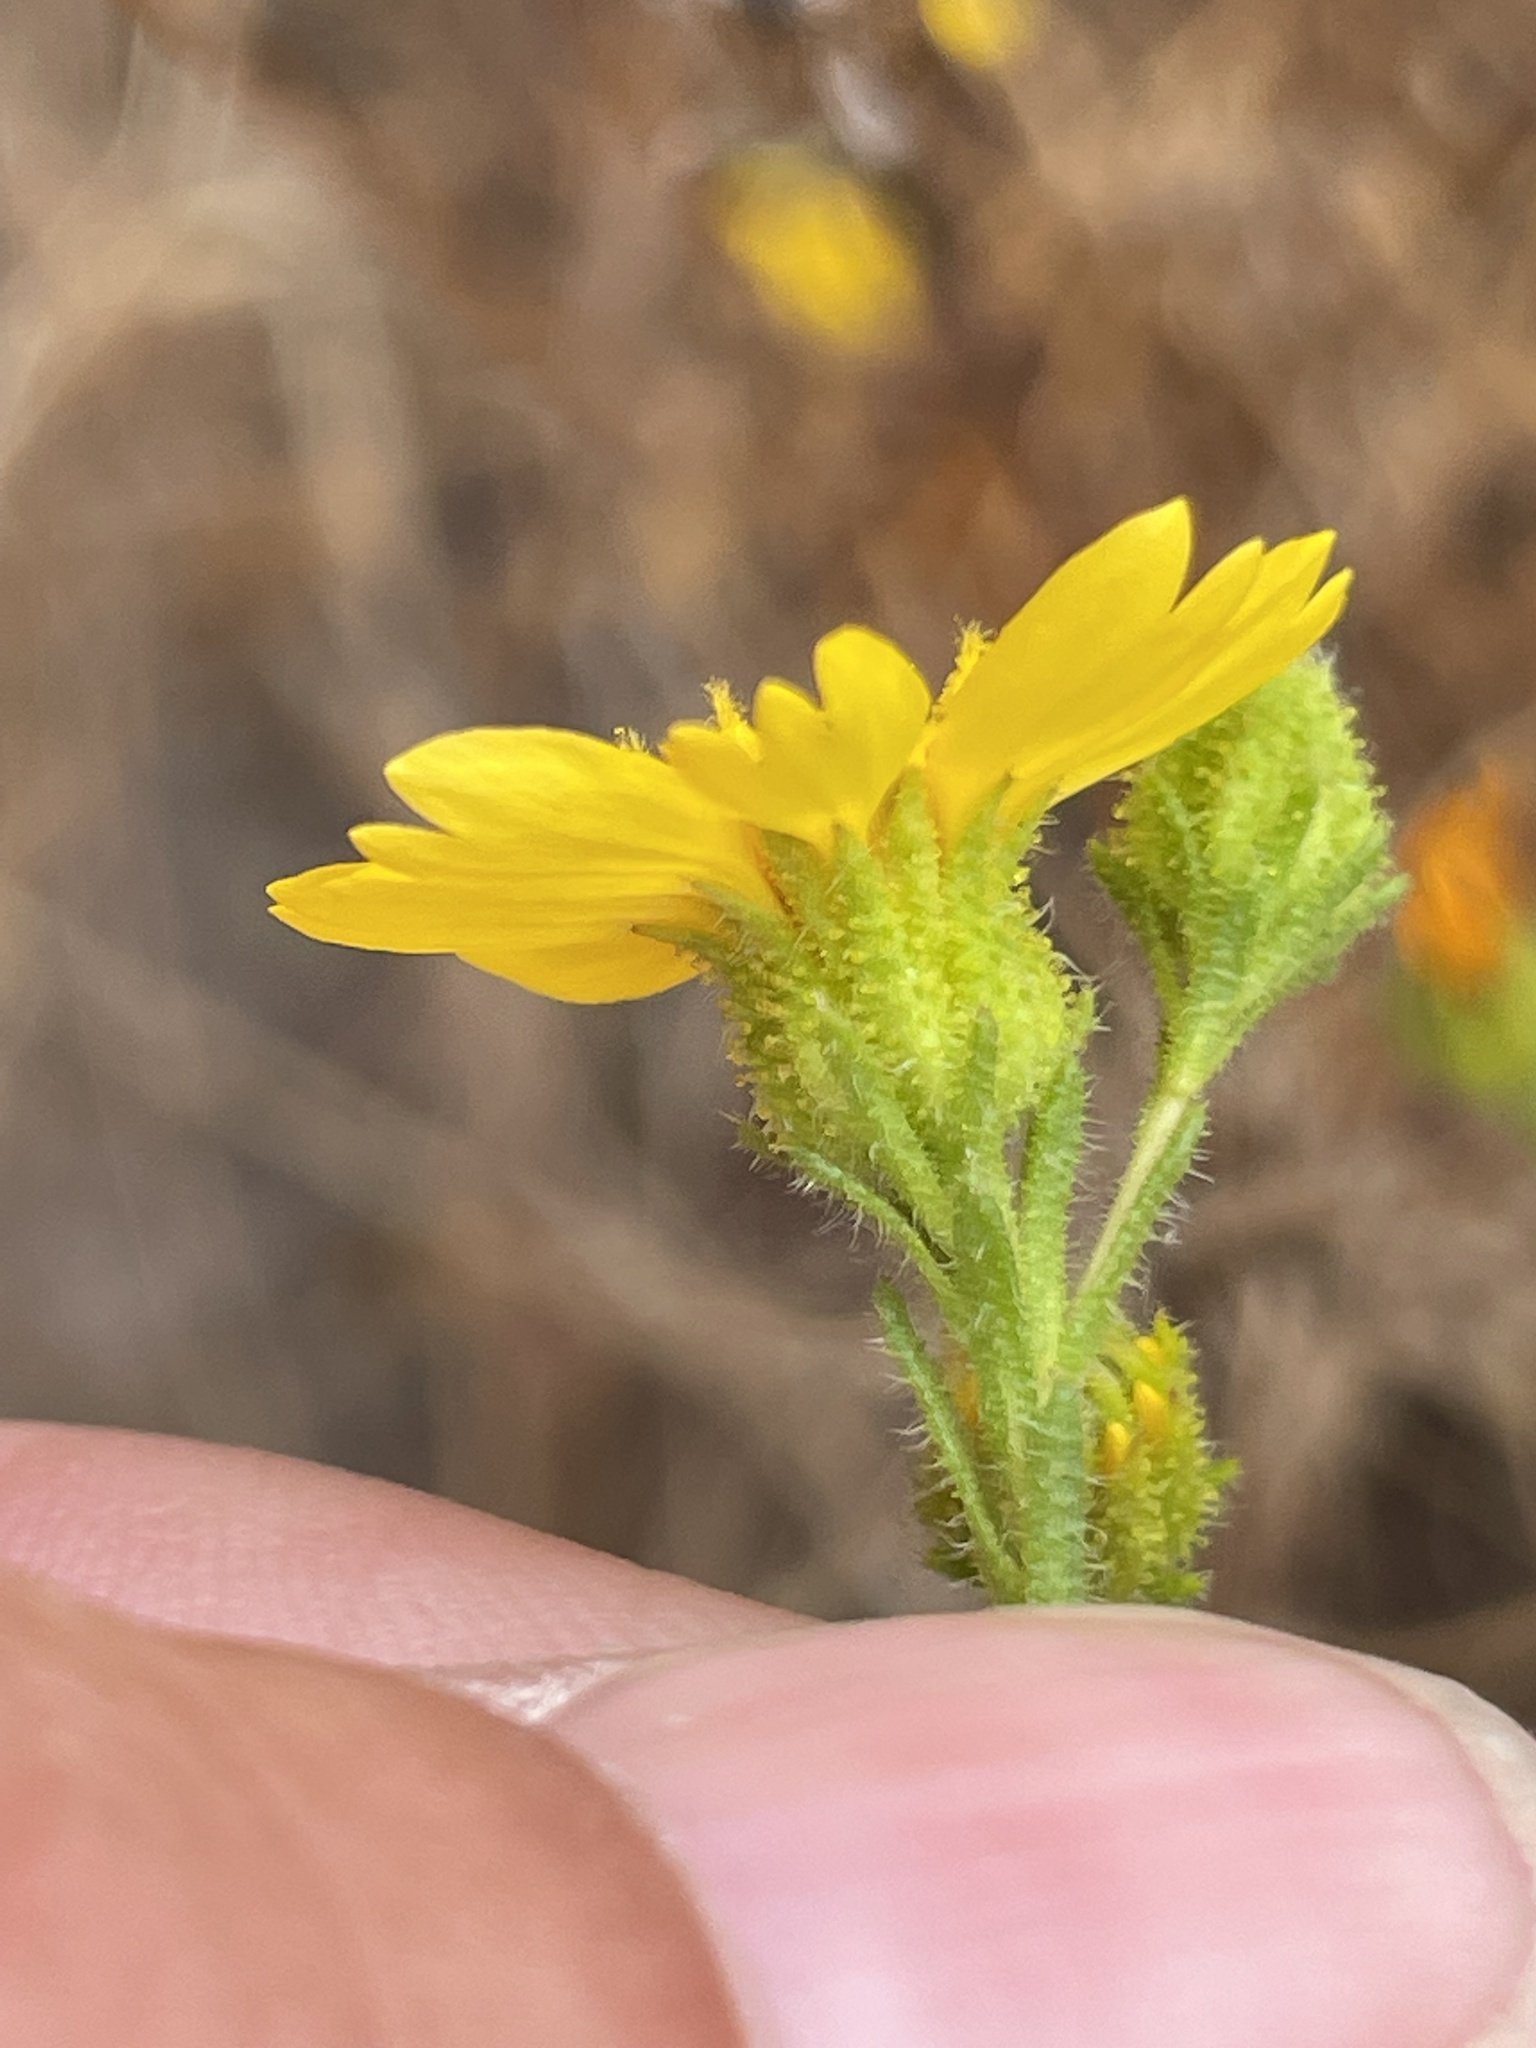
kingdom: Plantae
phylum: Tracheophyta
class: Magnoliopsida
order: Asterales
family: Asteraceae
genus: Deinandra
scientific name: Deinandra conjugens
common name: Otay tarplant
